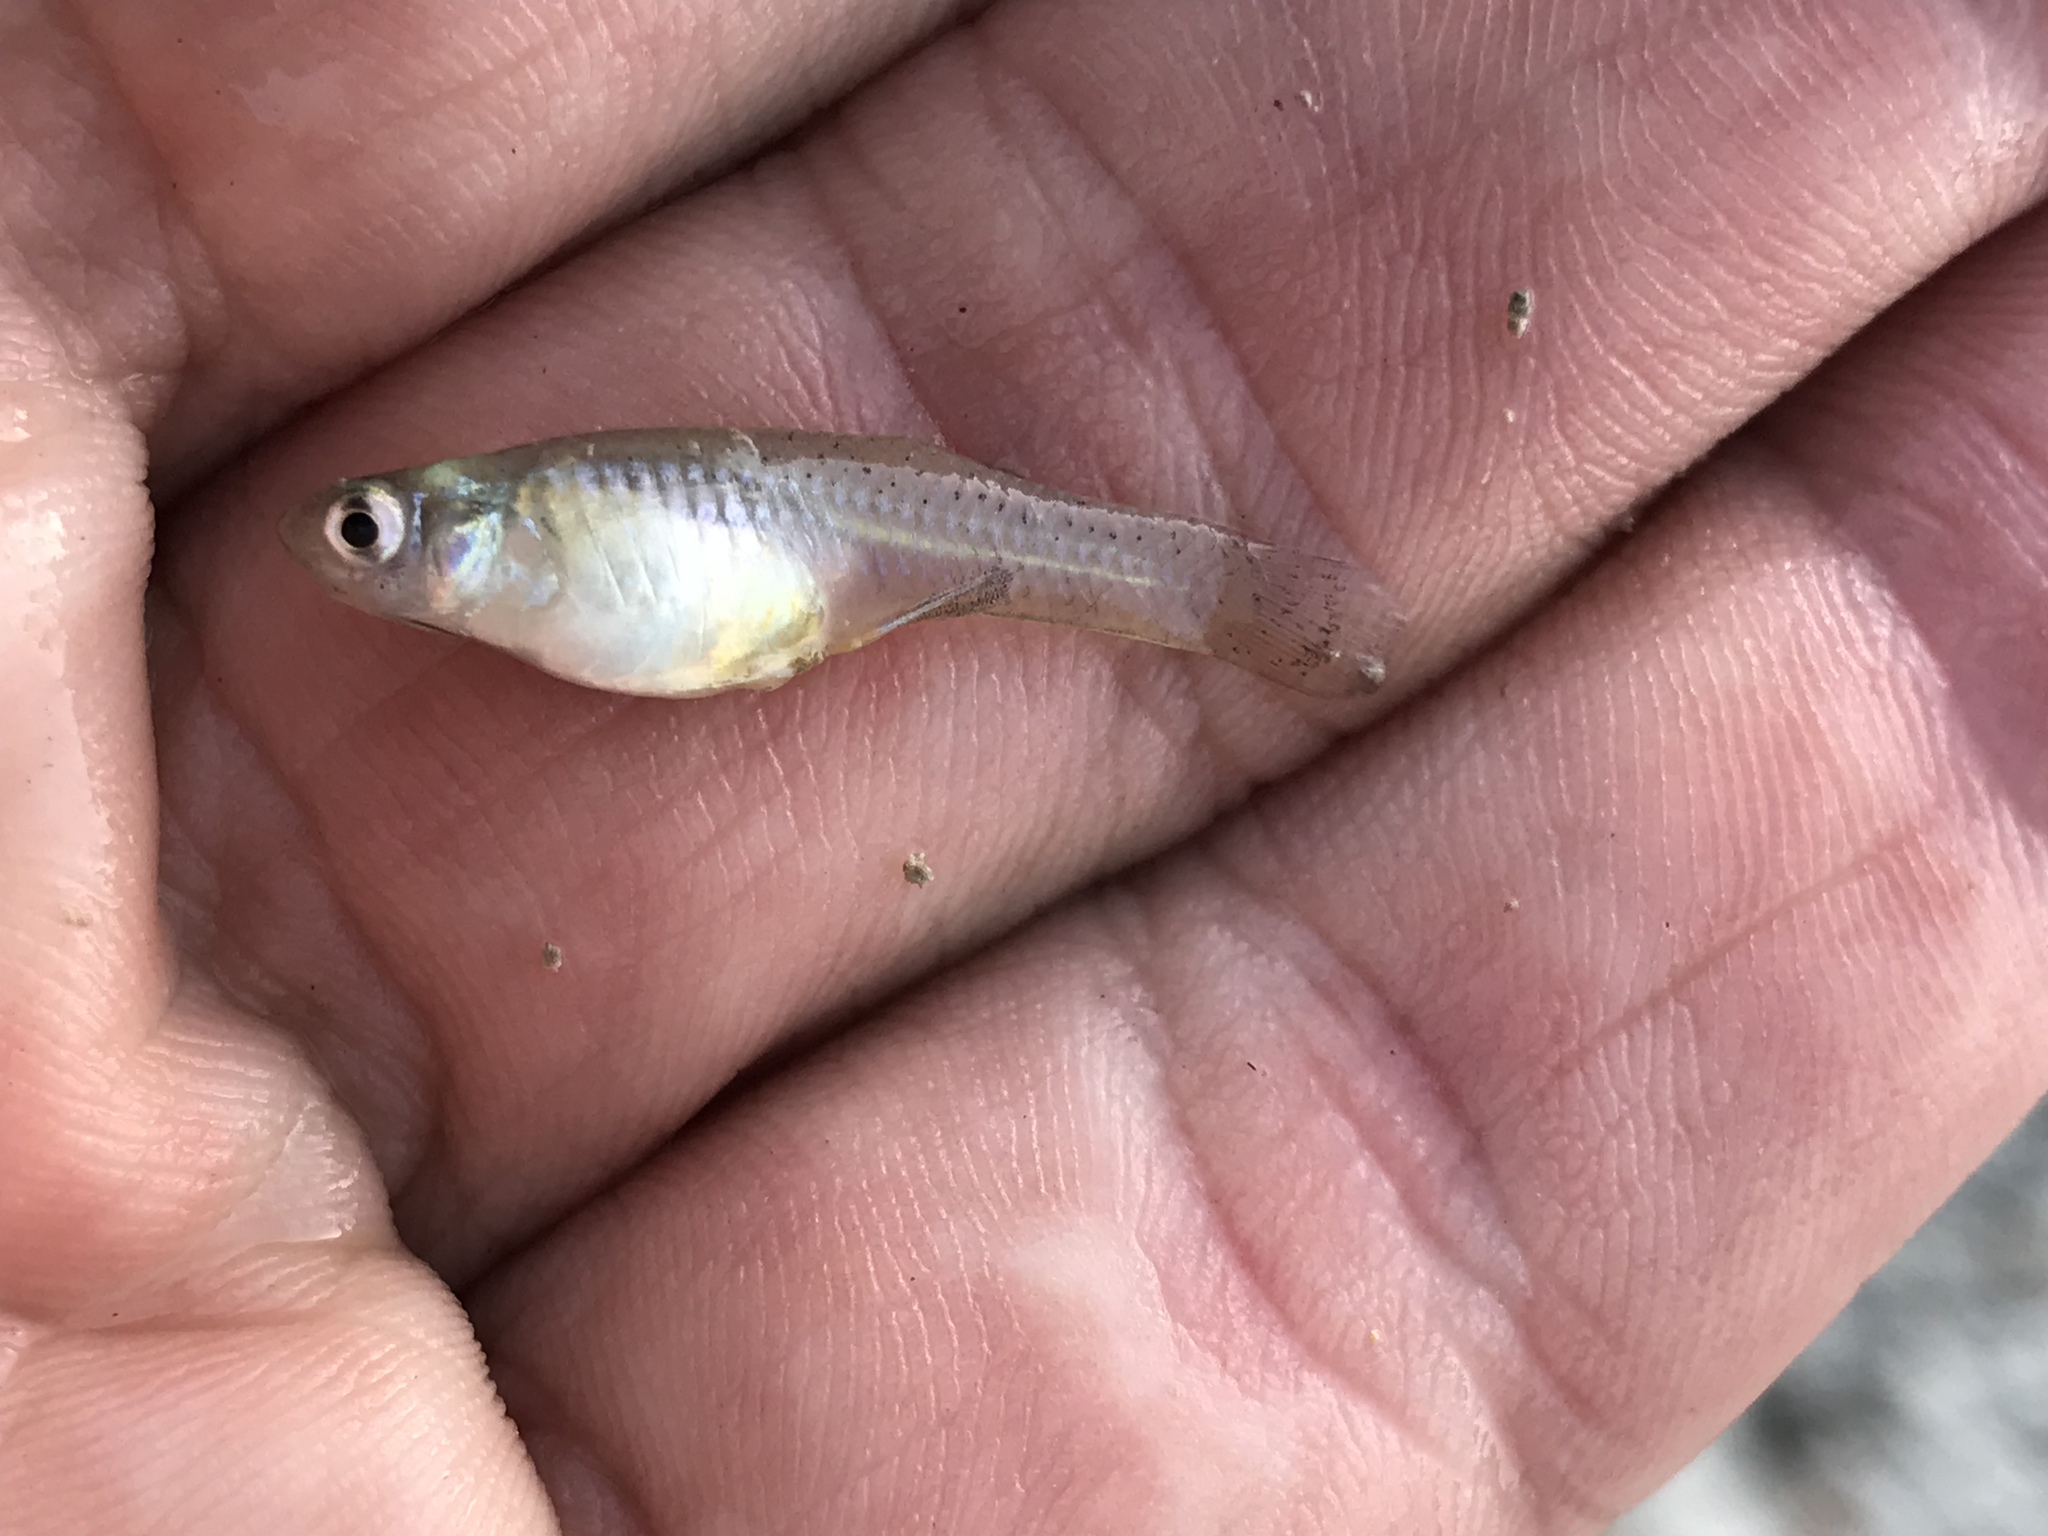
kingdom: Animalia
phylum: Chordata
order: Cyprinodontiformes
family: Poeciliidae
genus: Gambusia
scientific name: Gambusia affinis
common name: Mosquitofish
